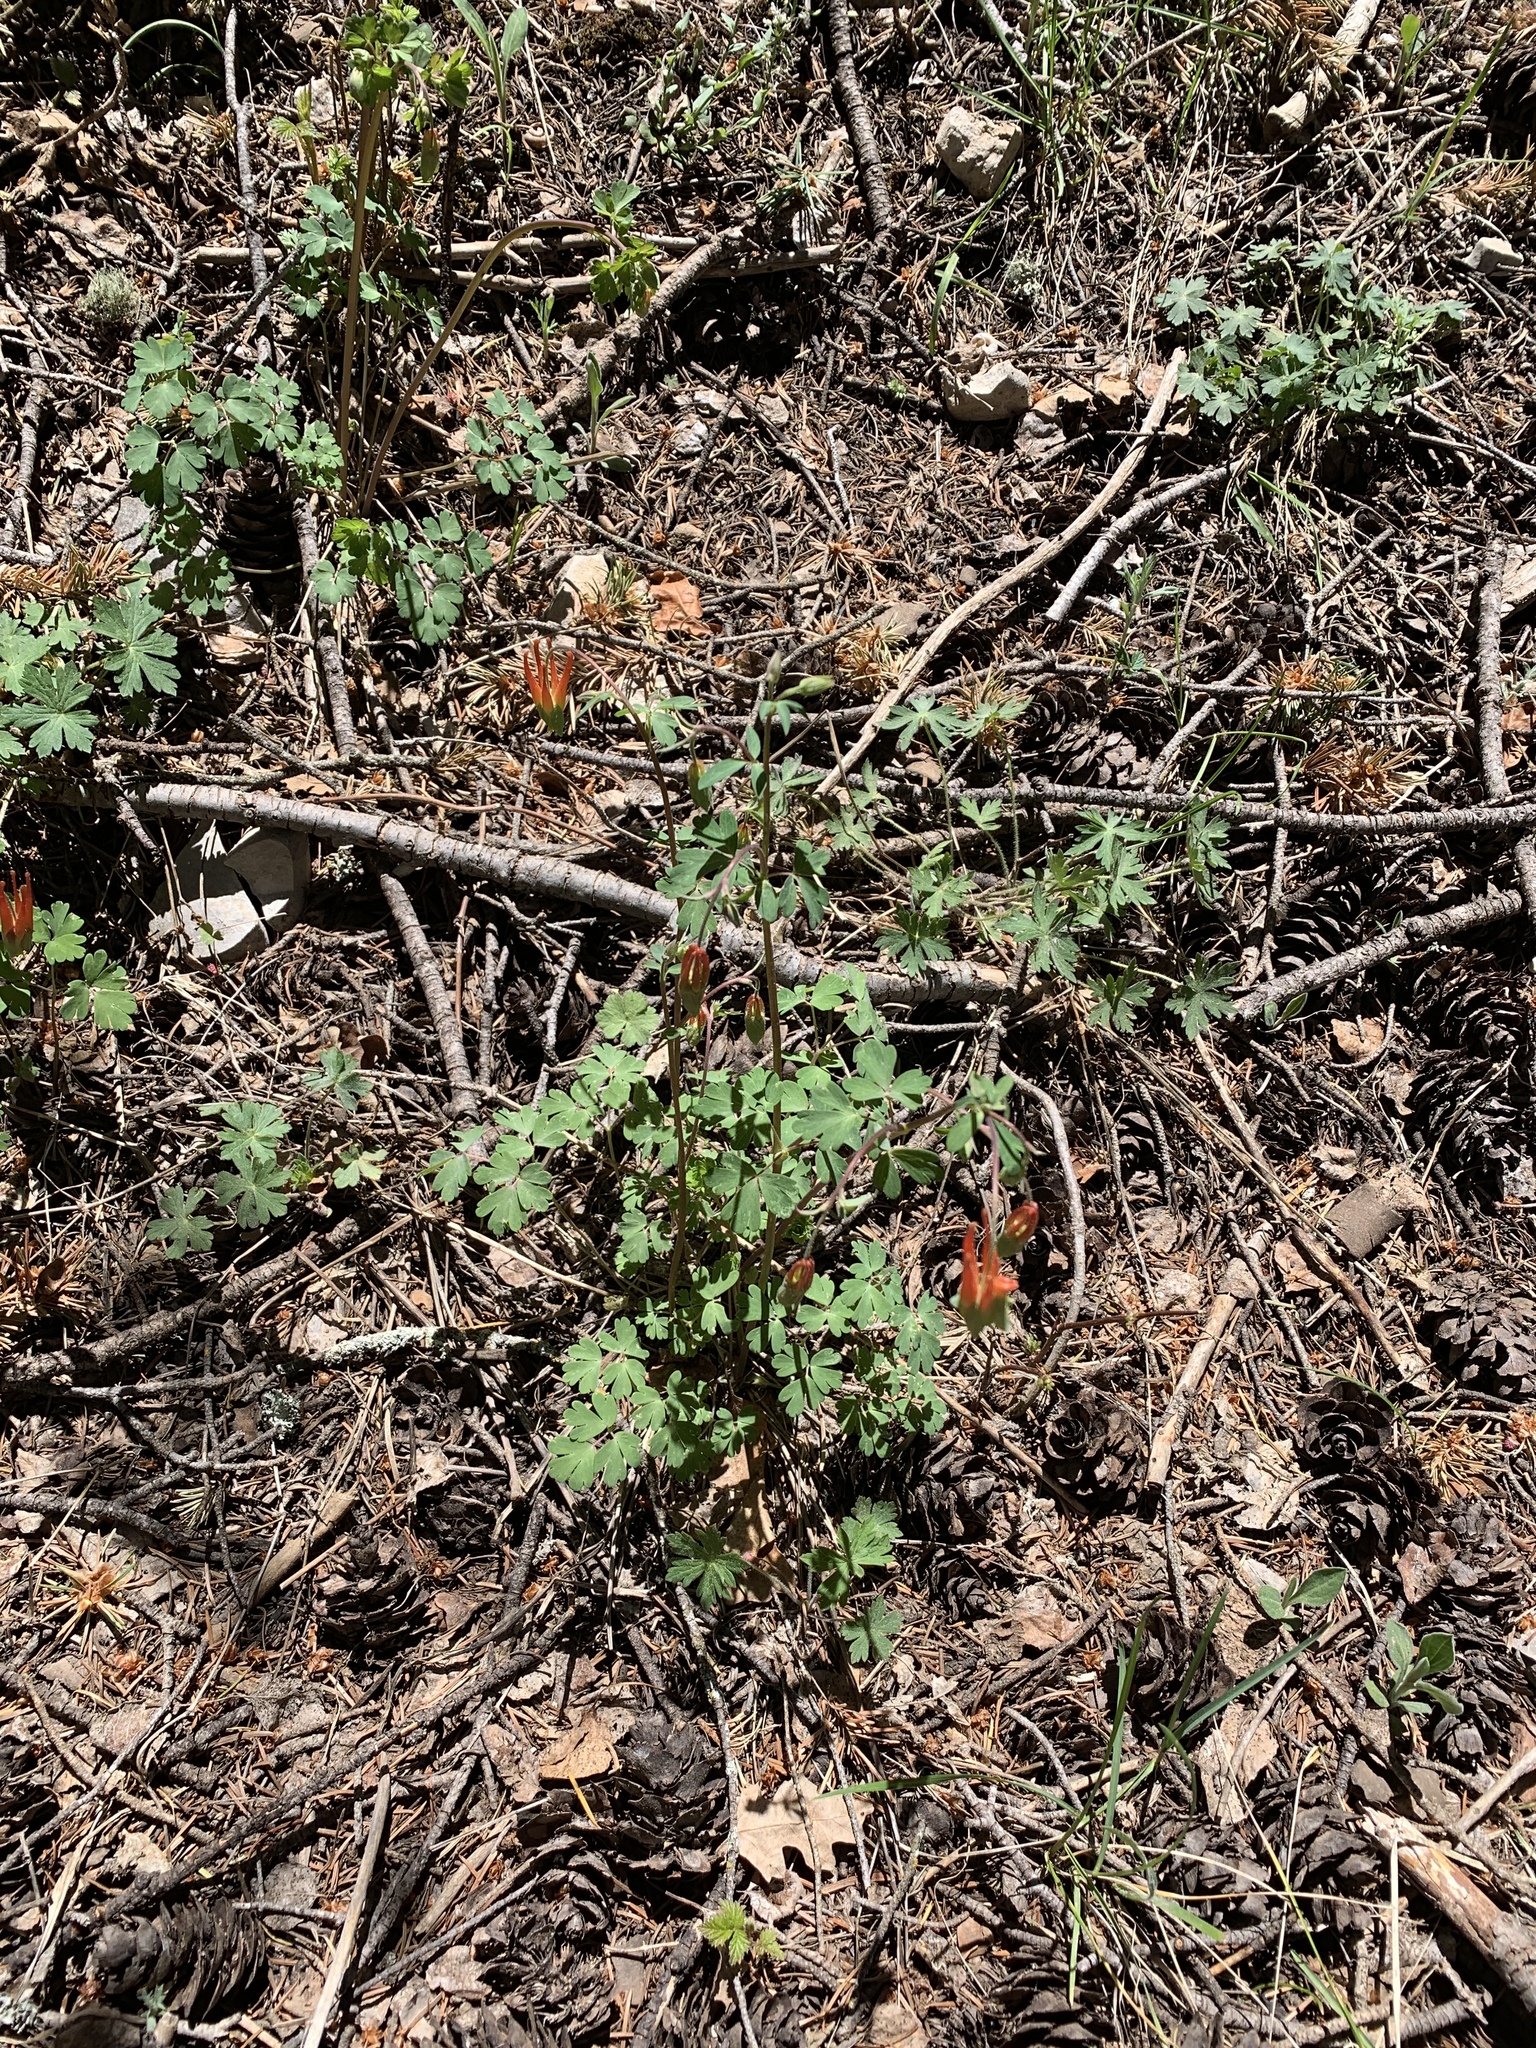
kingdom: Plantae
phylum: Tracheophyta
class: Magnoliopsida
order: Ranunculales
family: Ranunculaceae
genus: Aquilegia
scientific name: Aquilegia elegantula
